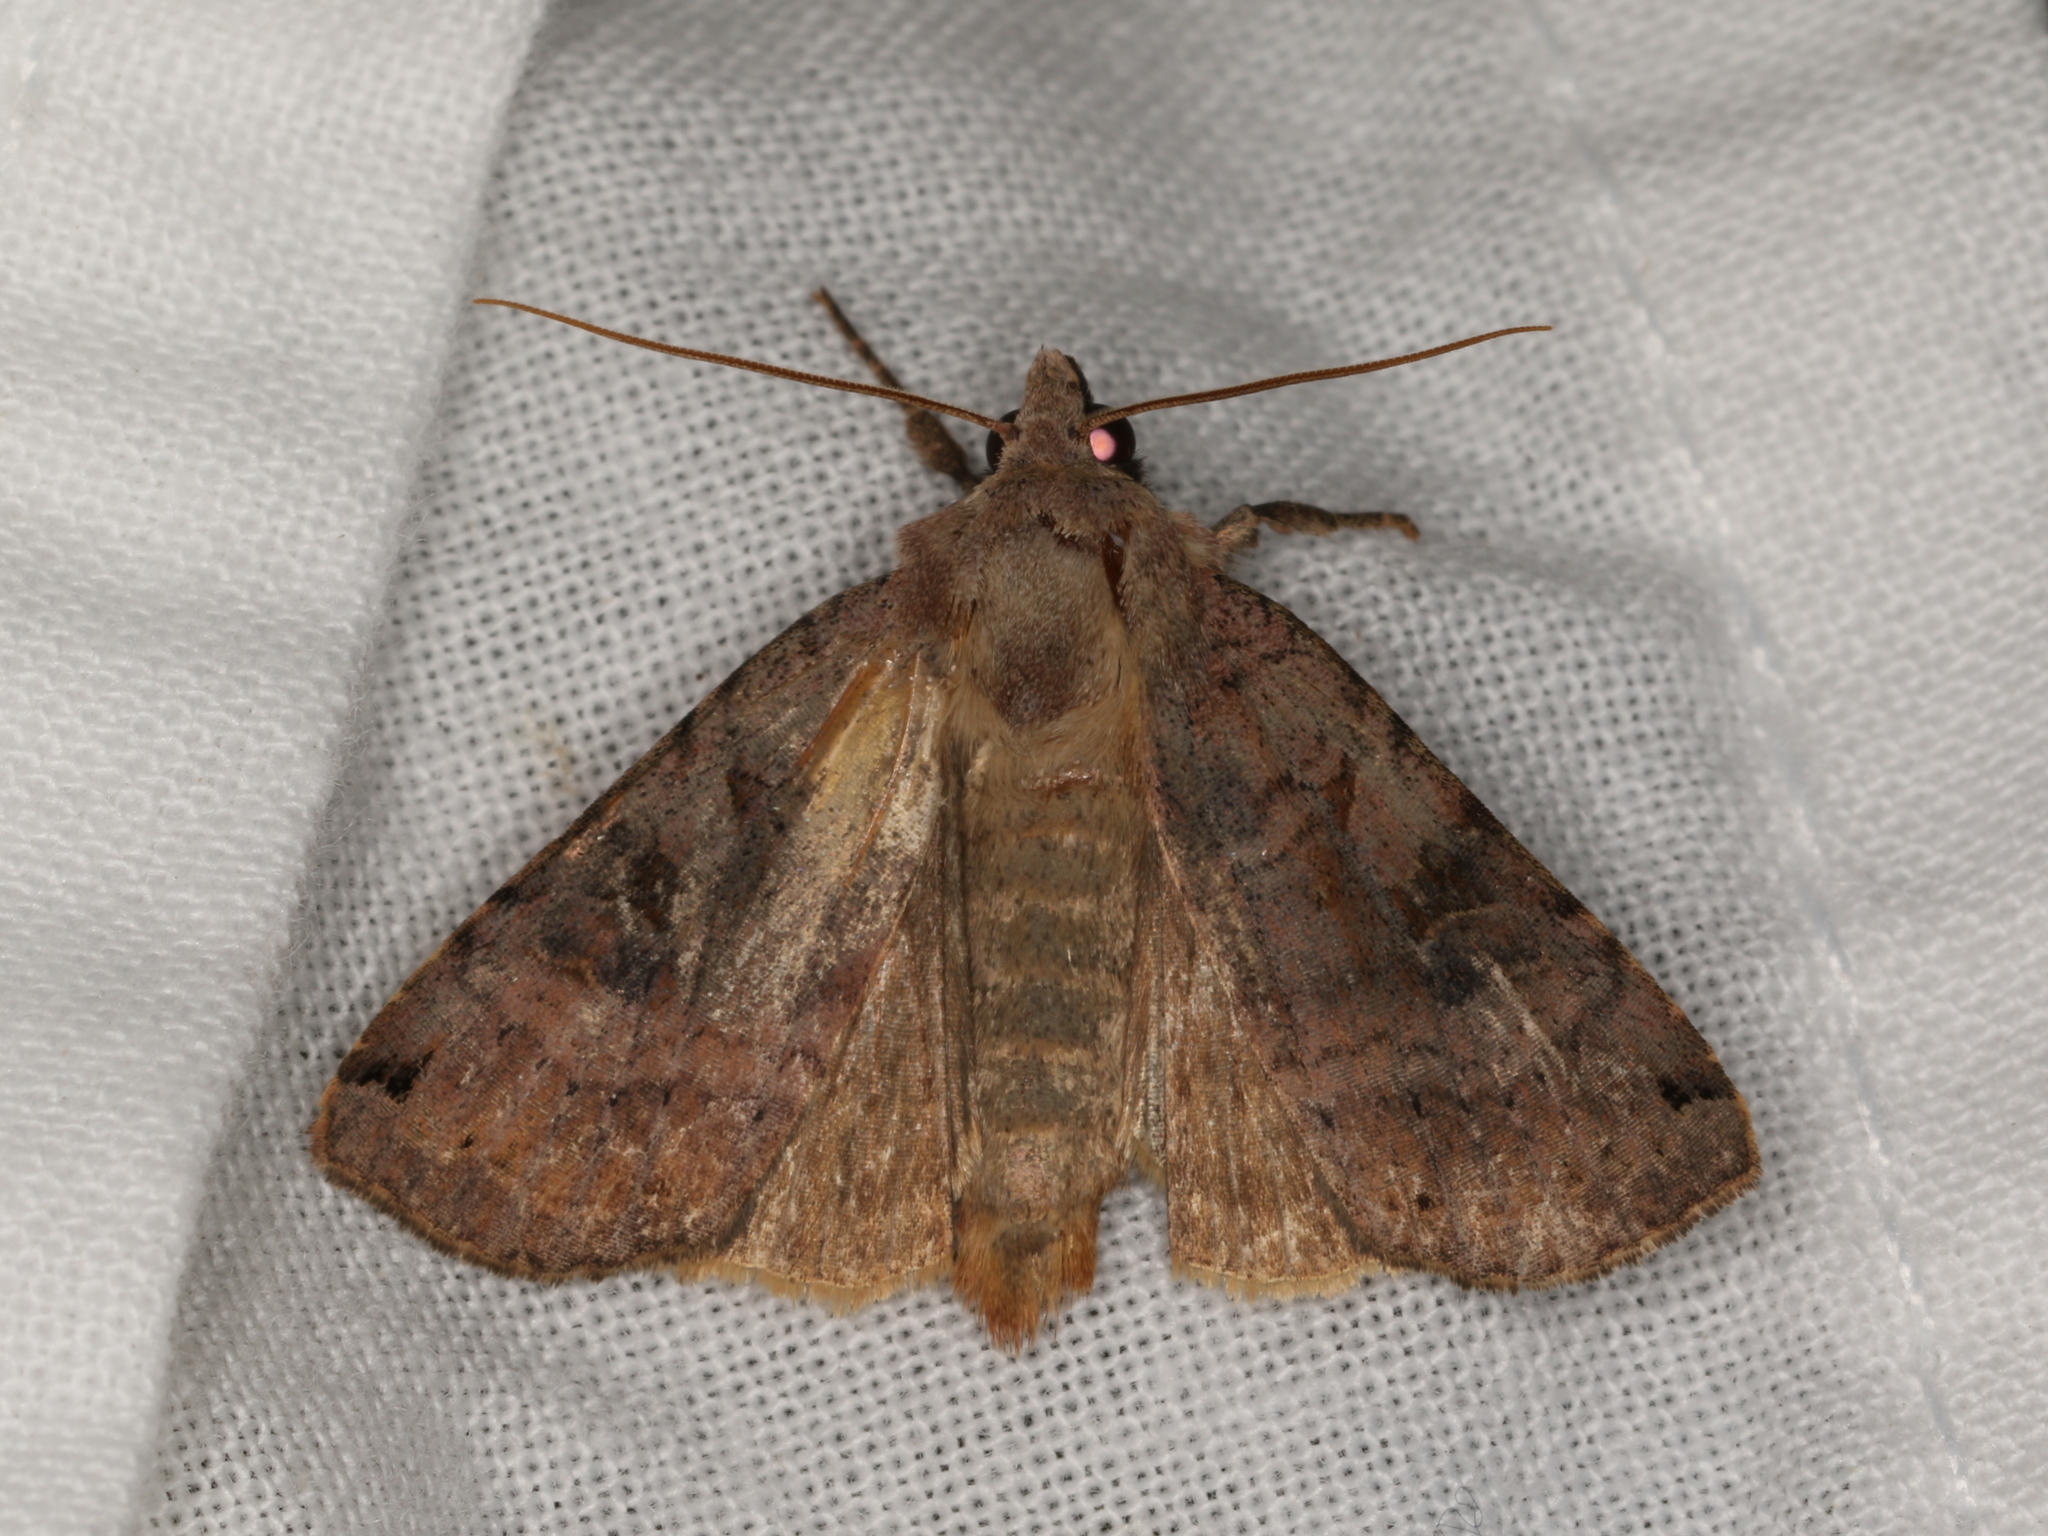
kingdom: Animalia
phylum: Arthropoda
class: Insecta
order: Lepidoptera
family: Noctuidae
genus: Xestia
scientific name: Xestia smithii
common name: Smith's dart
